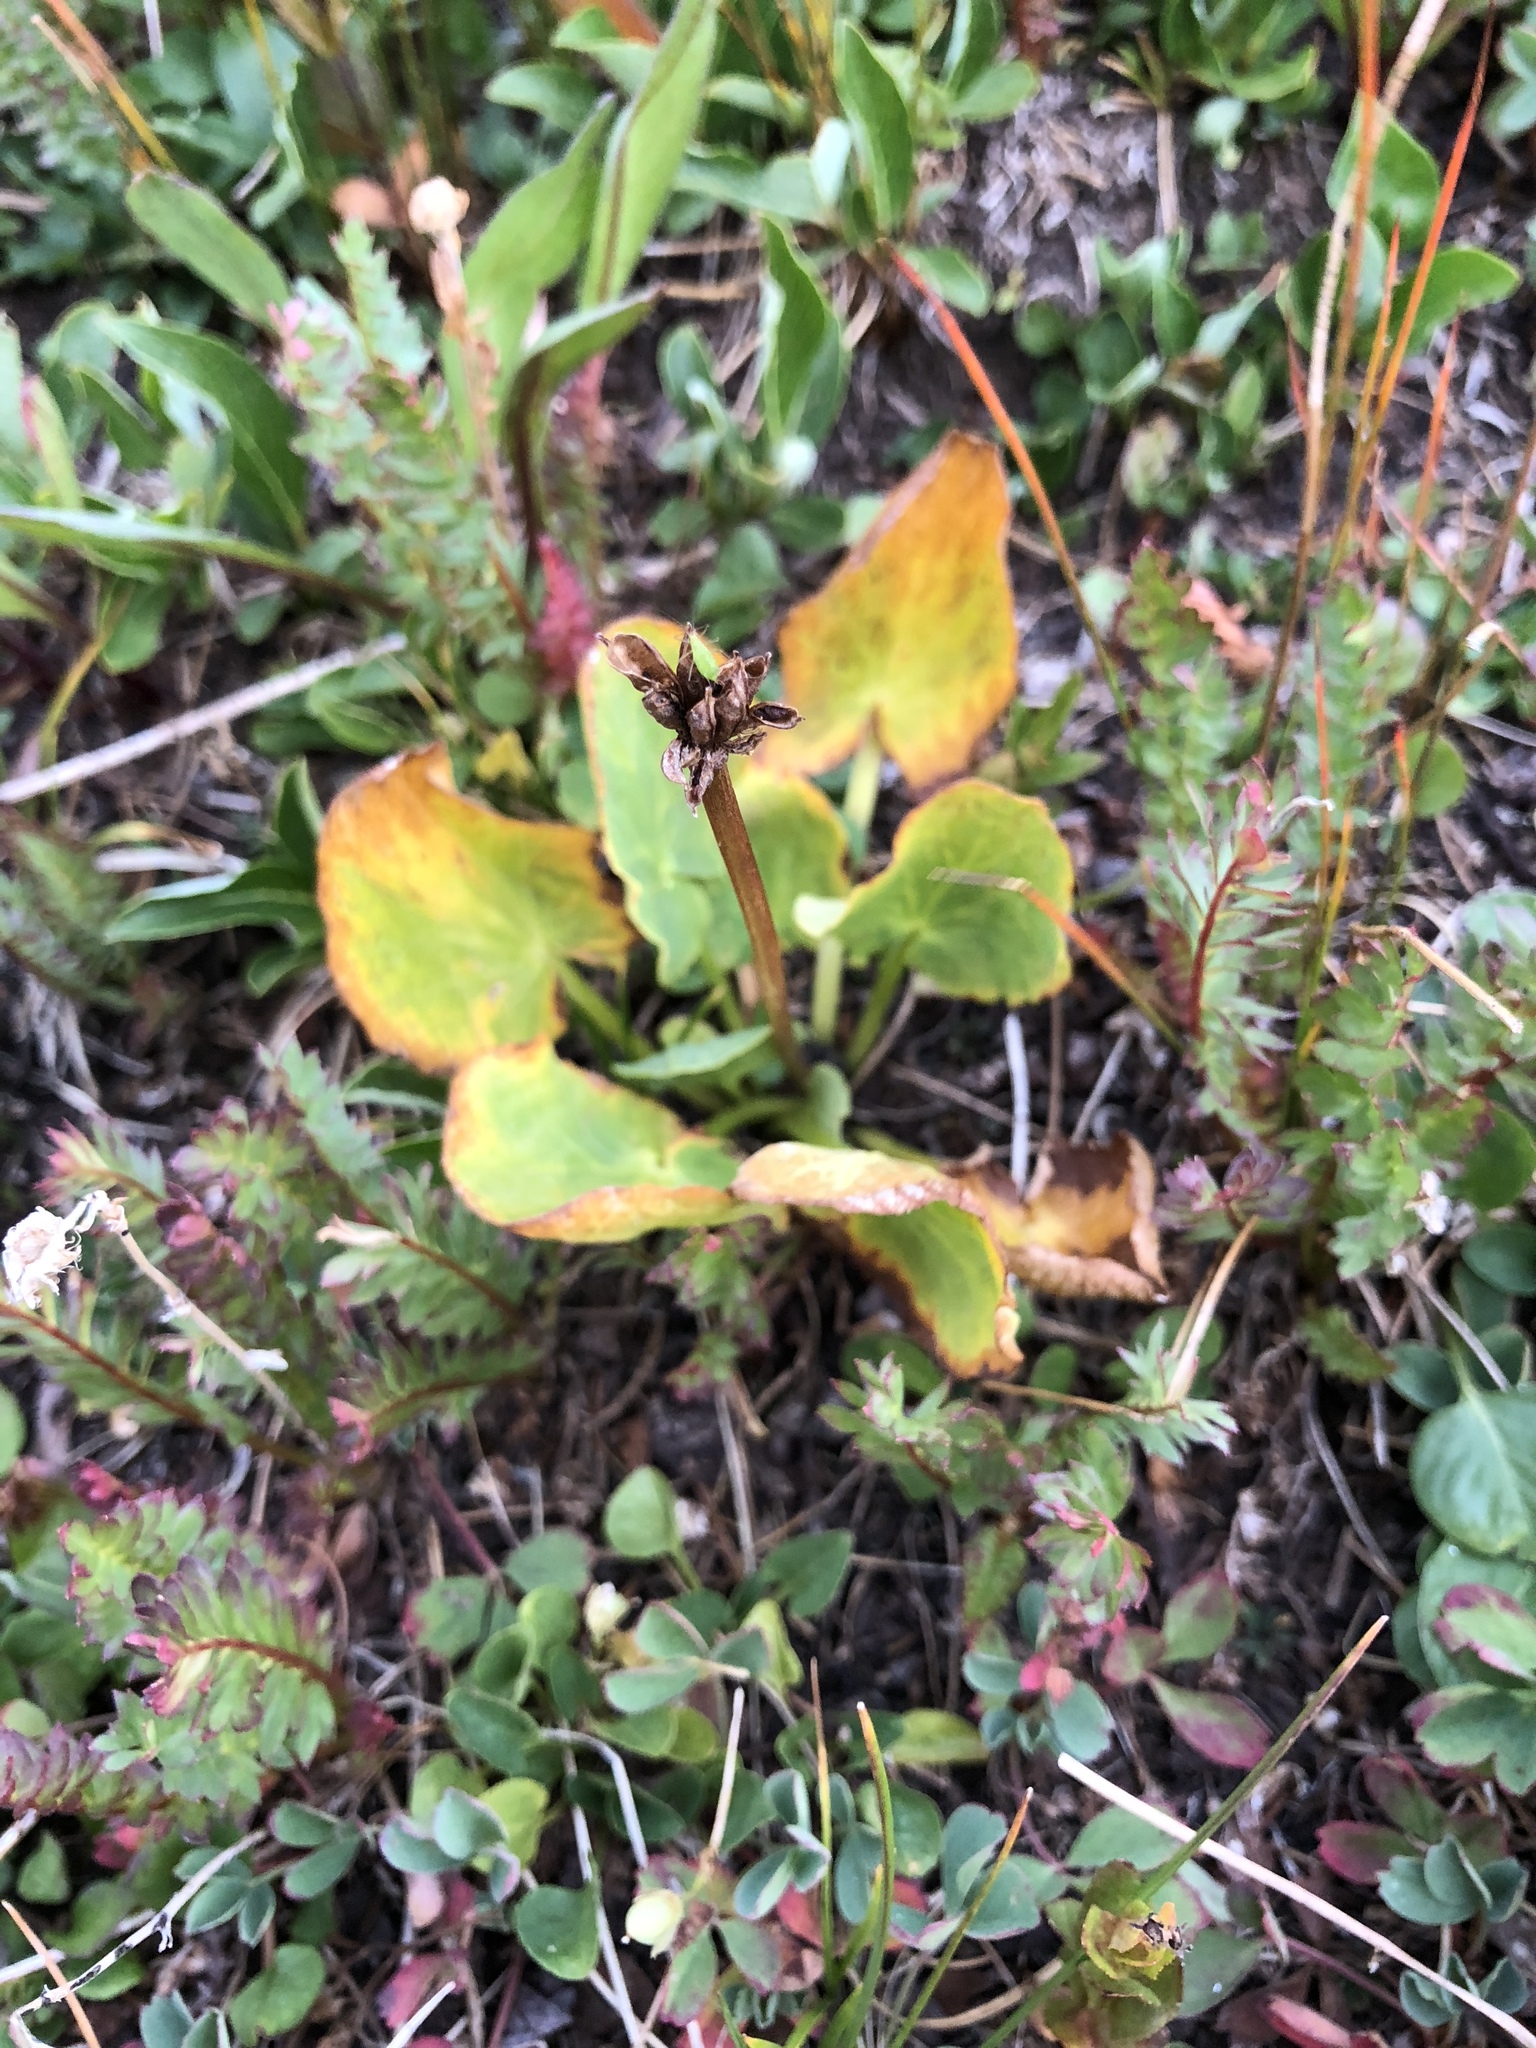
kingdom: Plantae
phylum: Tracheophyta
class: Magnoliopsida
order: Ranunculales
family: Ranunculaceae
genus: Caltha
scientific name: Caltha leptosepala
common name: Elkslip
